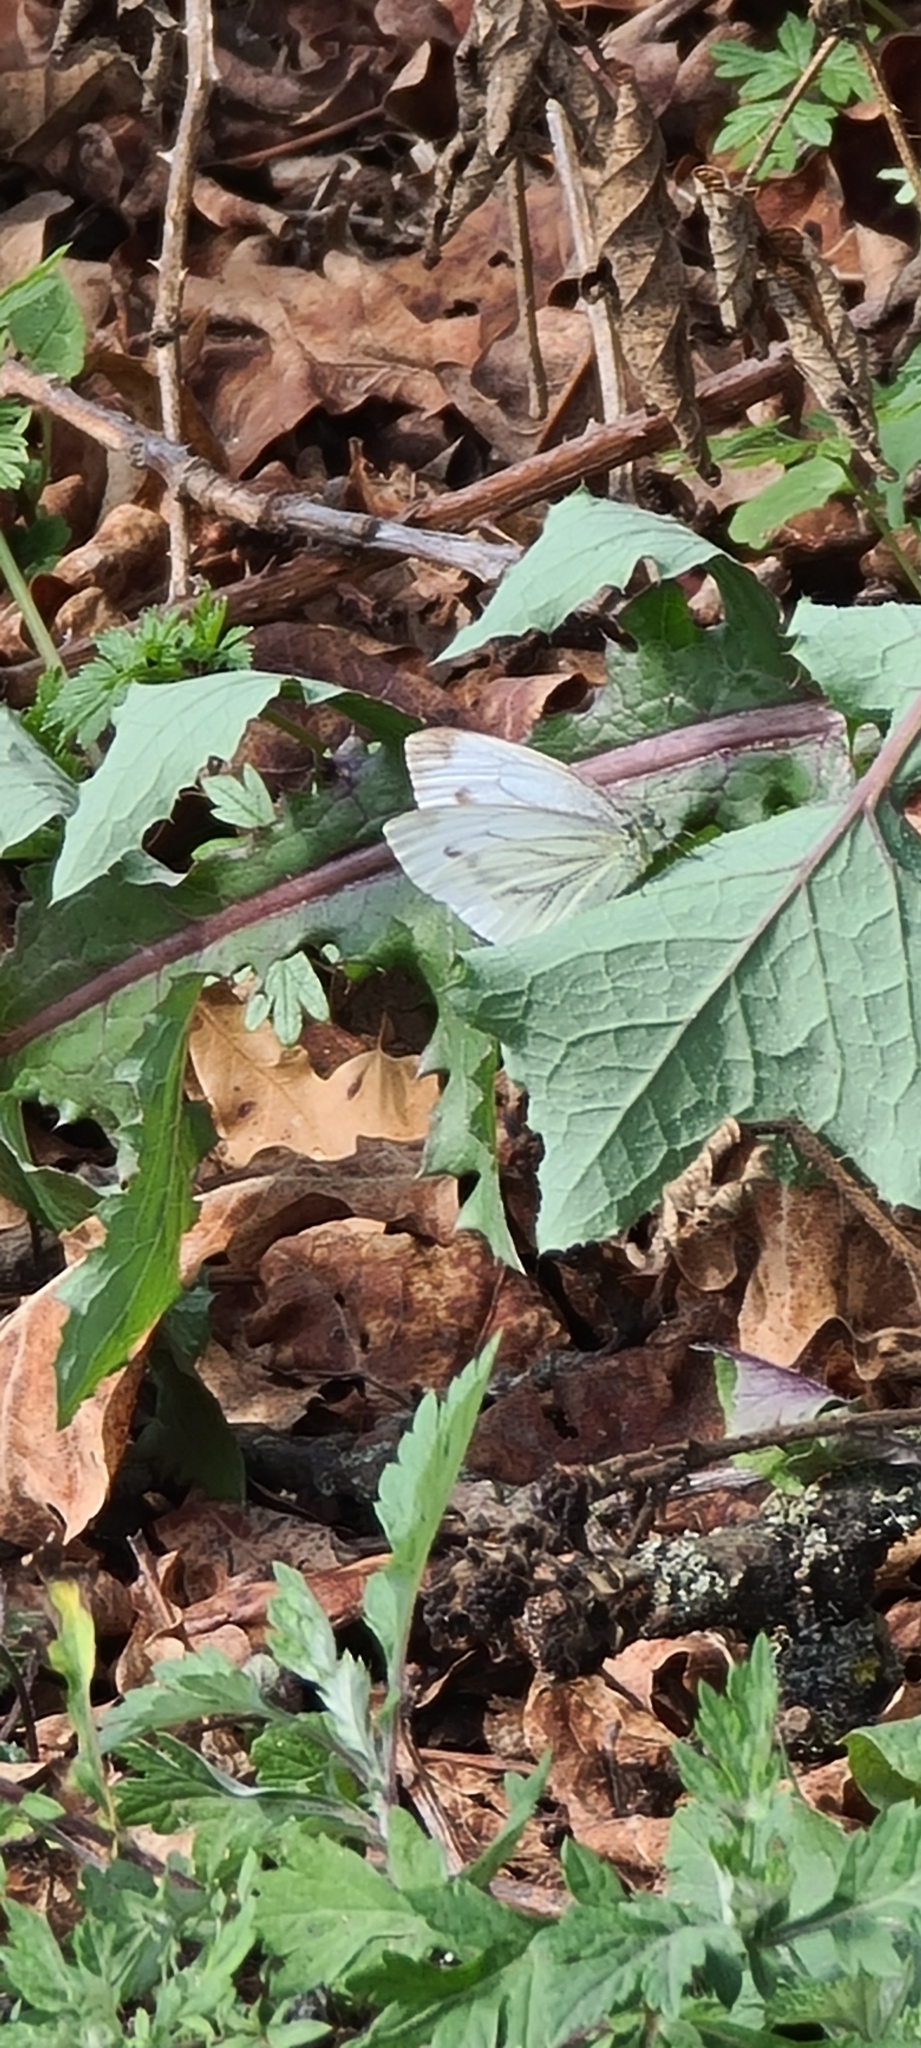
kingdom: Animalia
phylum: Arthropoda
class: Insecta
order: Lepidoptera
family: Pieridae
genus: Pieris
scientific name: Pieris napi
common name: Green-veined white
